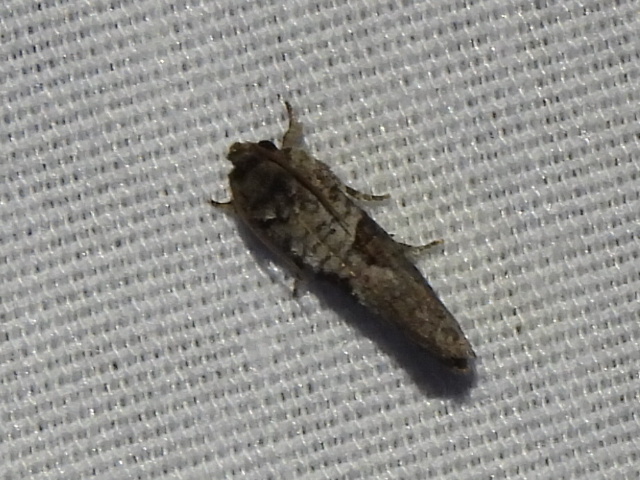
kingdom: Animalia
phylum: Arthropoda
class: Insecta
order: Lepidoptera
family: Tineidae
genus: Acrolophus
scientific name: Acrolophus piger
